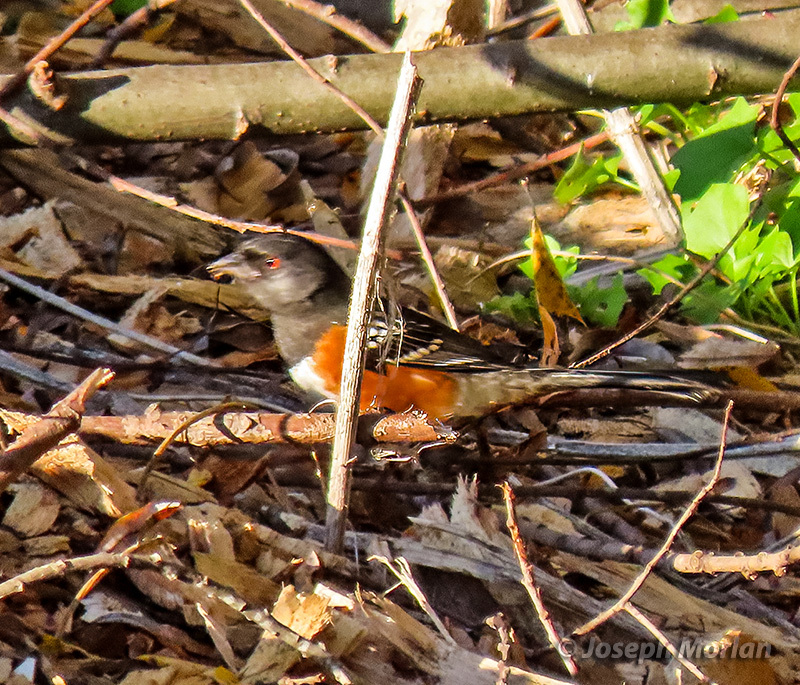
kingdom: Animalia
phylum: Chordata
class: Aves
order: Passeriformes
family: Passerellidae
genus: Pipilo
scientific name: Pipilo maculatus
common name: Spotted towhee
